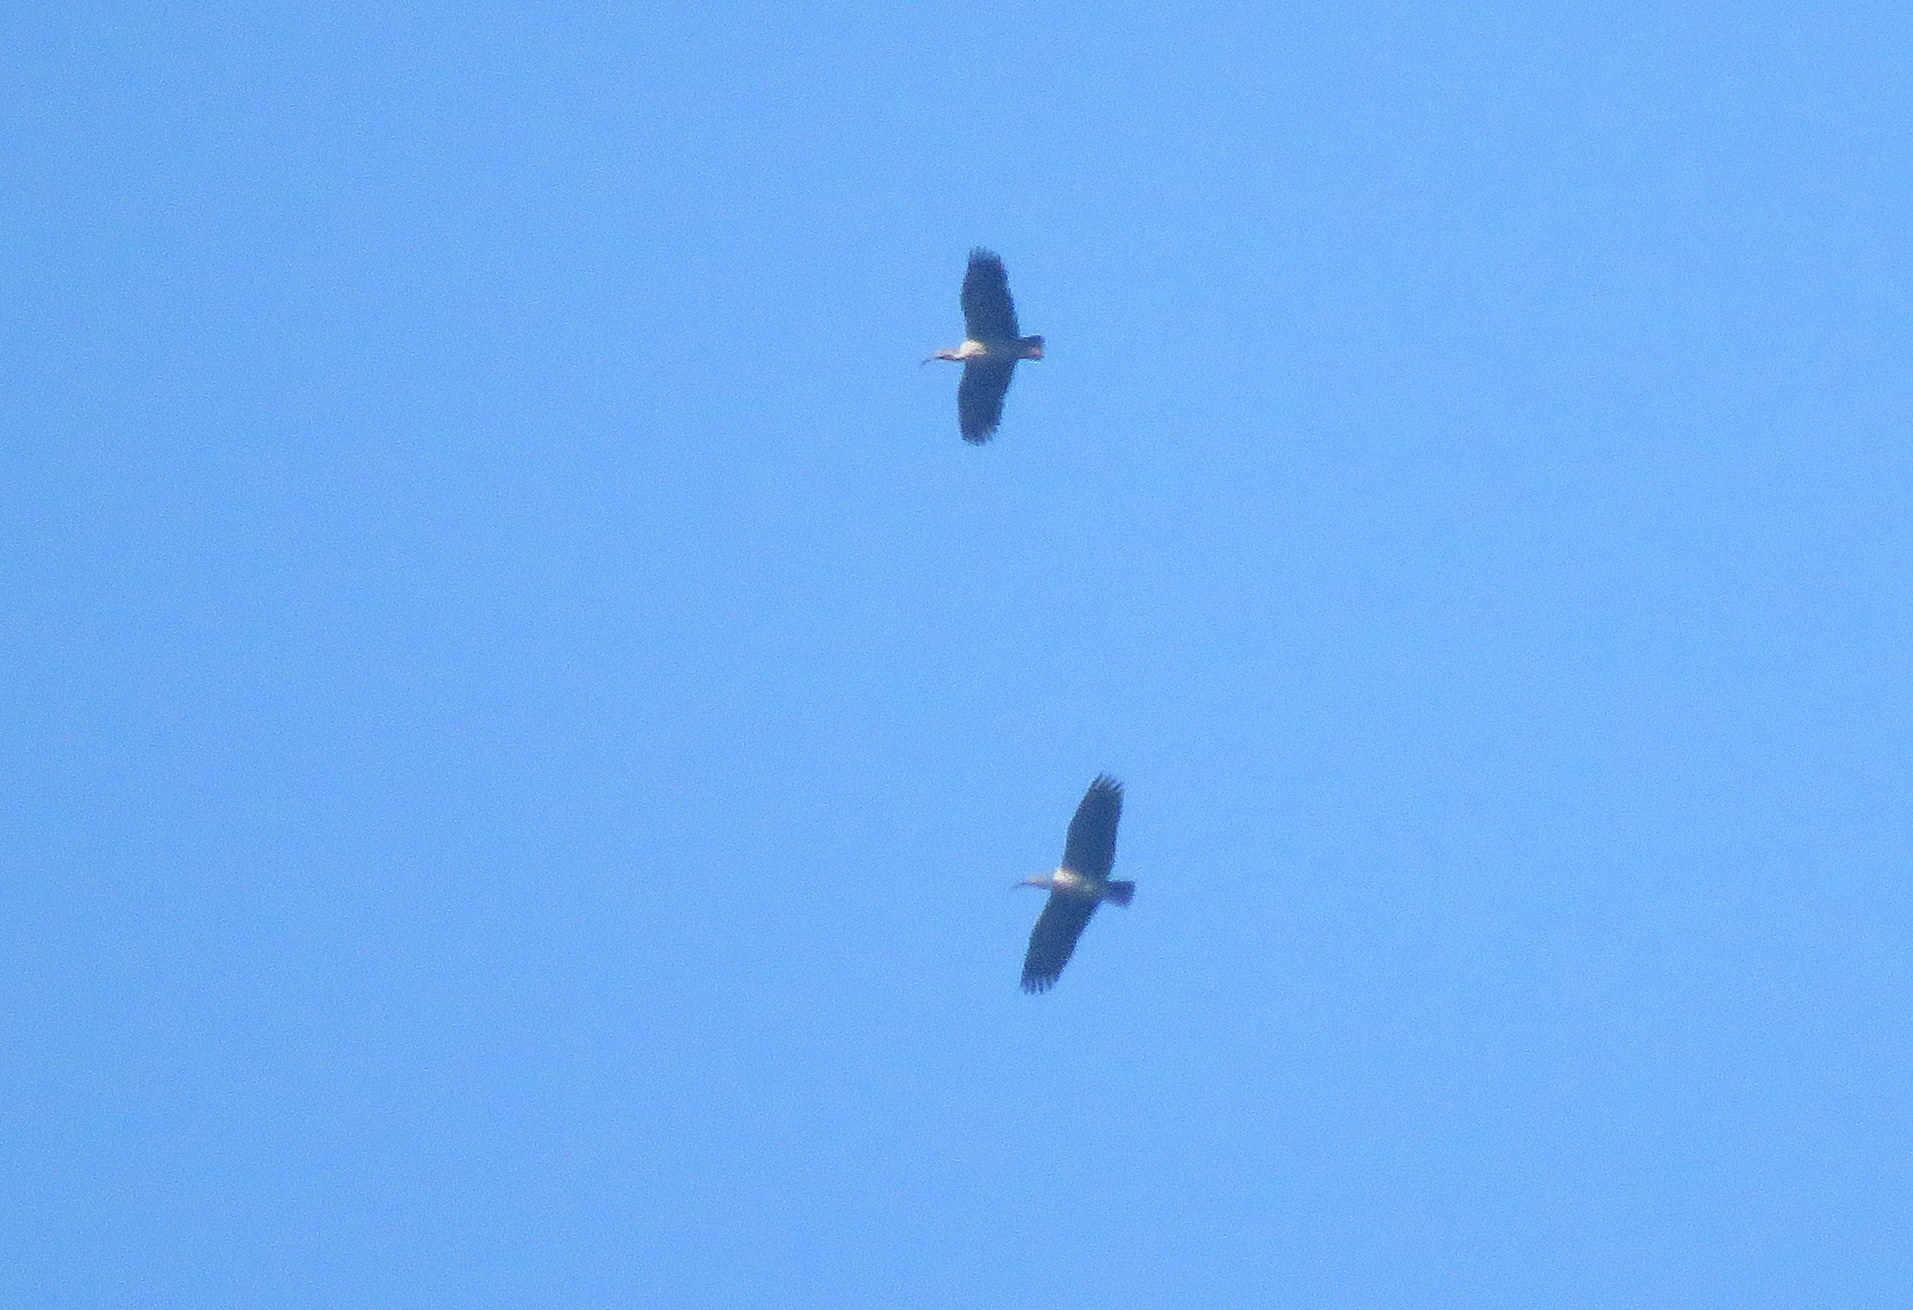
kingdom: Animalia
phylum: Chordata
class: Aves
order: Pelecaniformes
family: Threskiornithidae
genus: Theristicus
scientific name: Theristicus caerulescens
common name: Plumbeous ibis
